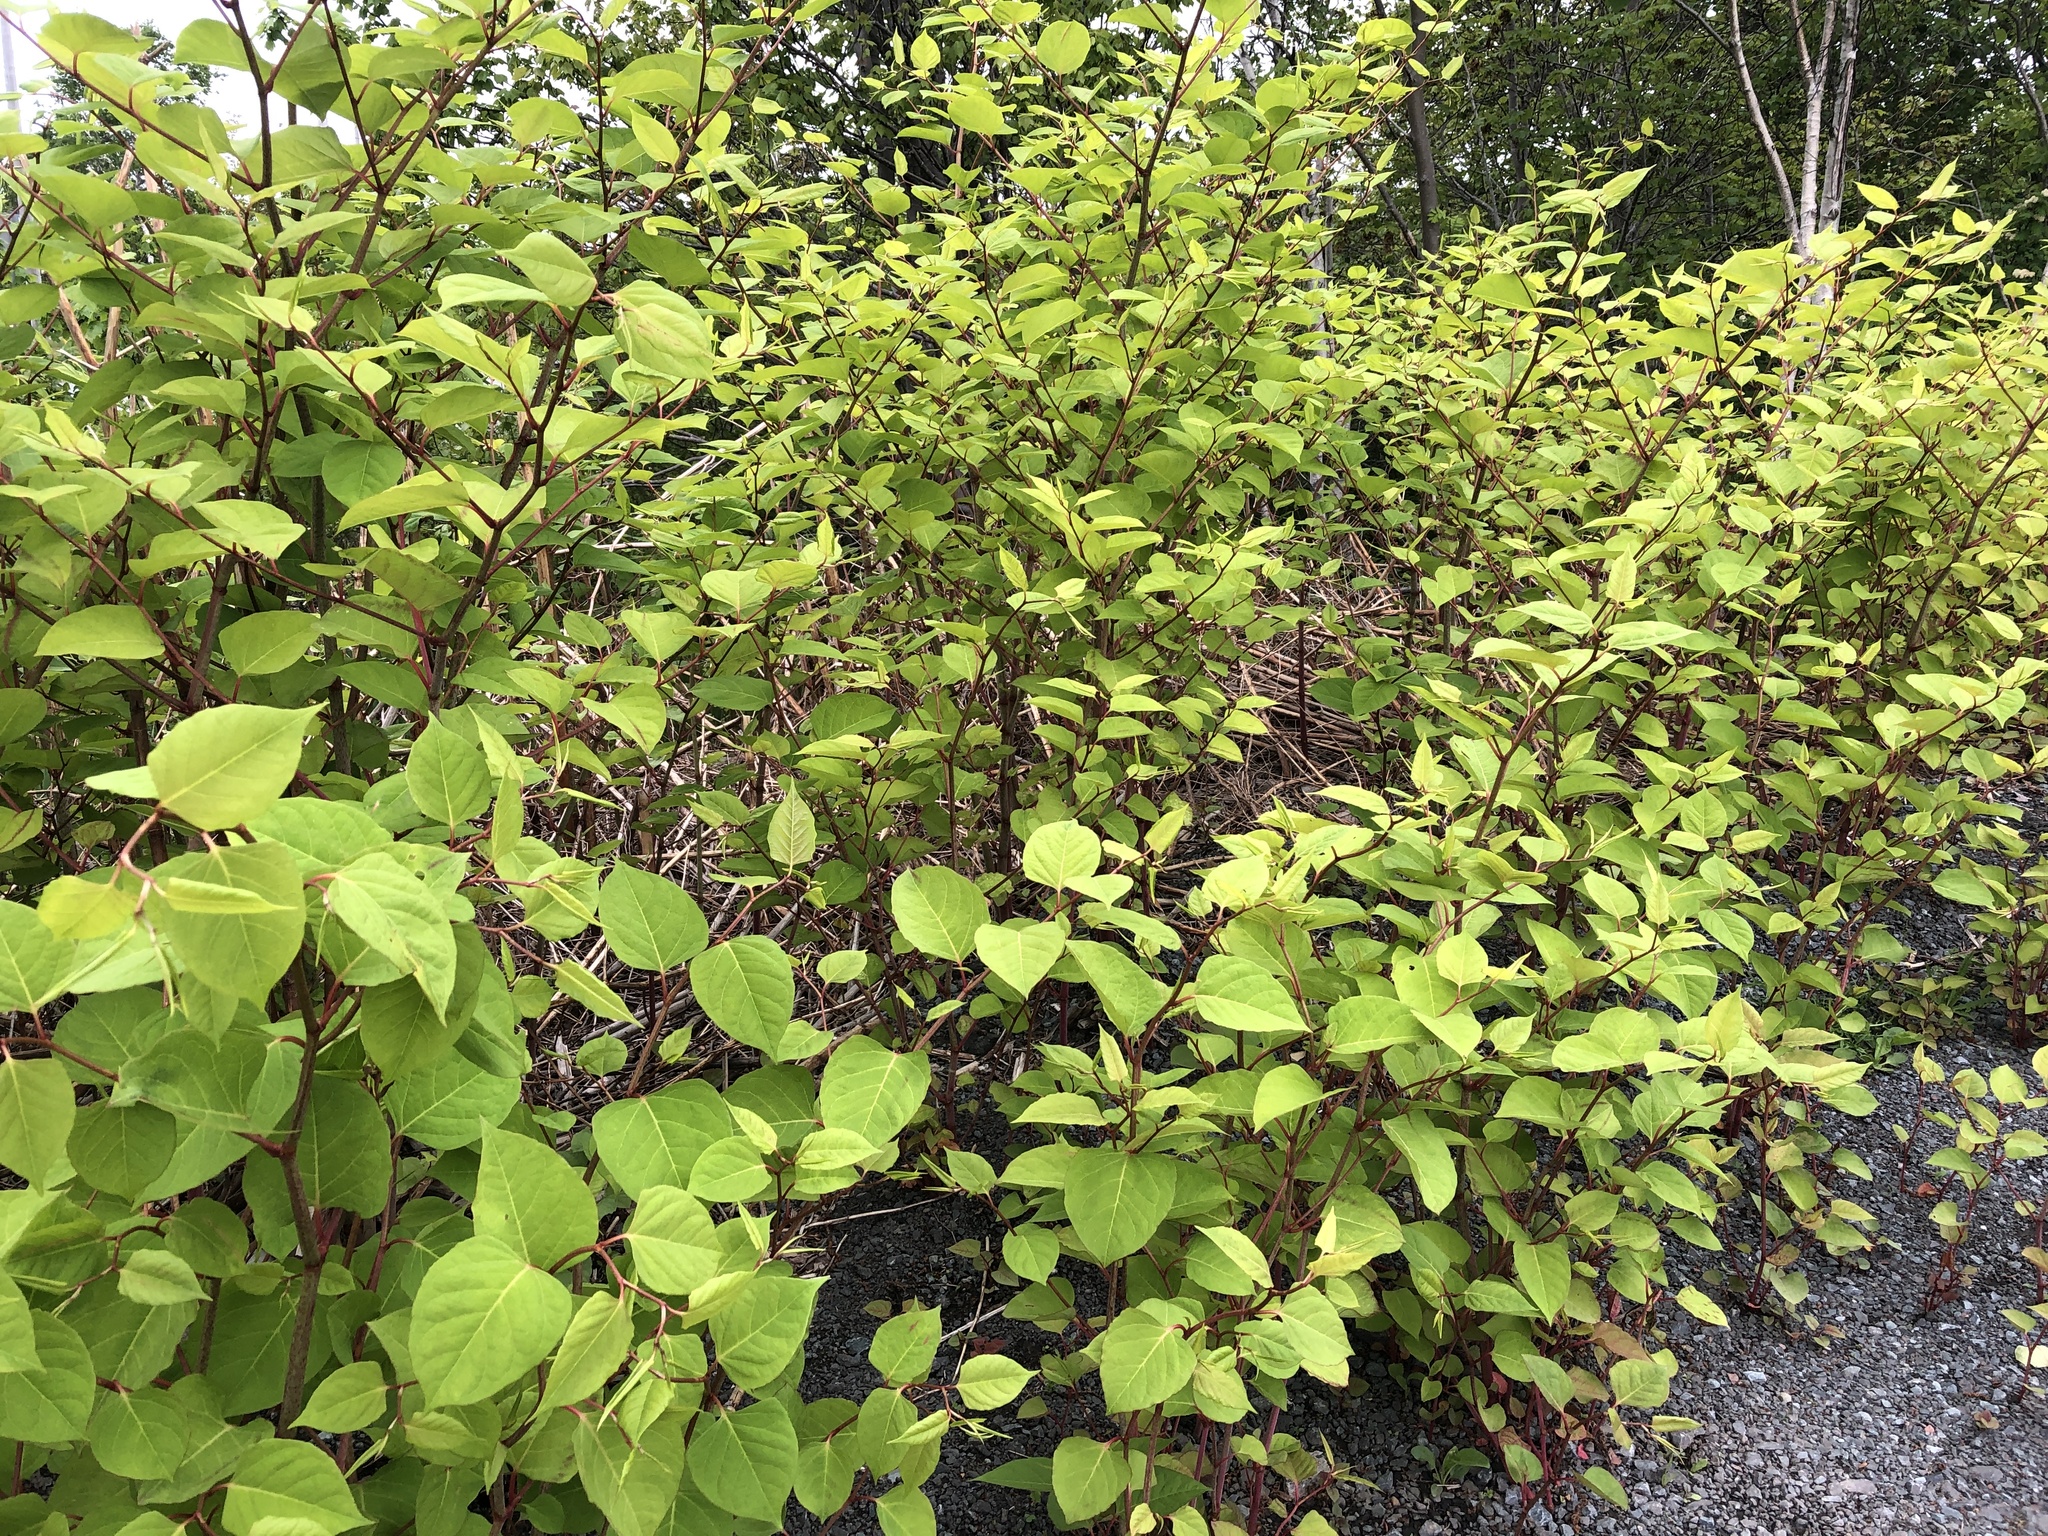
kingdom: Plantae
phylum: Tracheophyta
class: Magnoliopsida
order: Caryophyllales
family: Polygonaceae
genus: Reynoutria
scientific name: Reynoutria japonica
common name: Japanese knotweed
